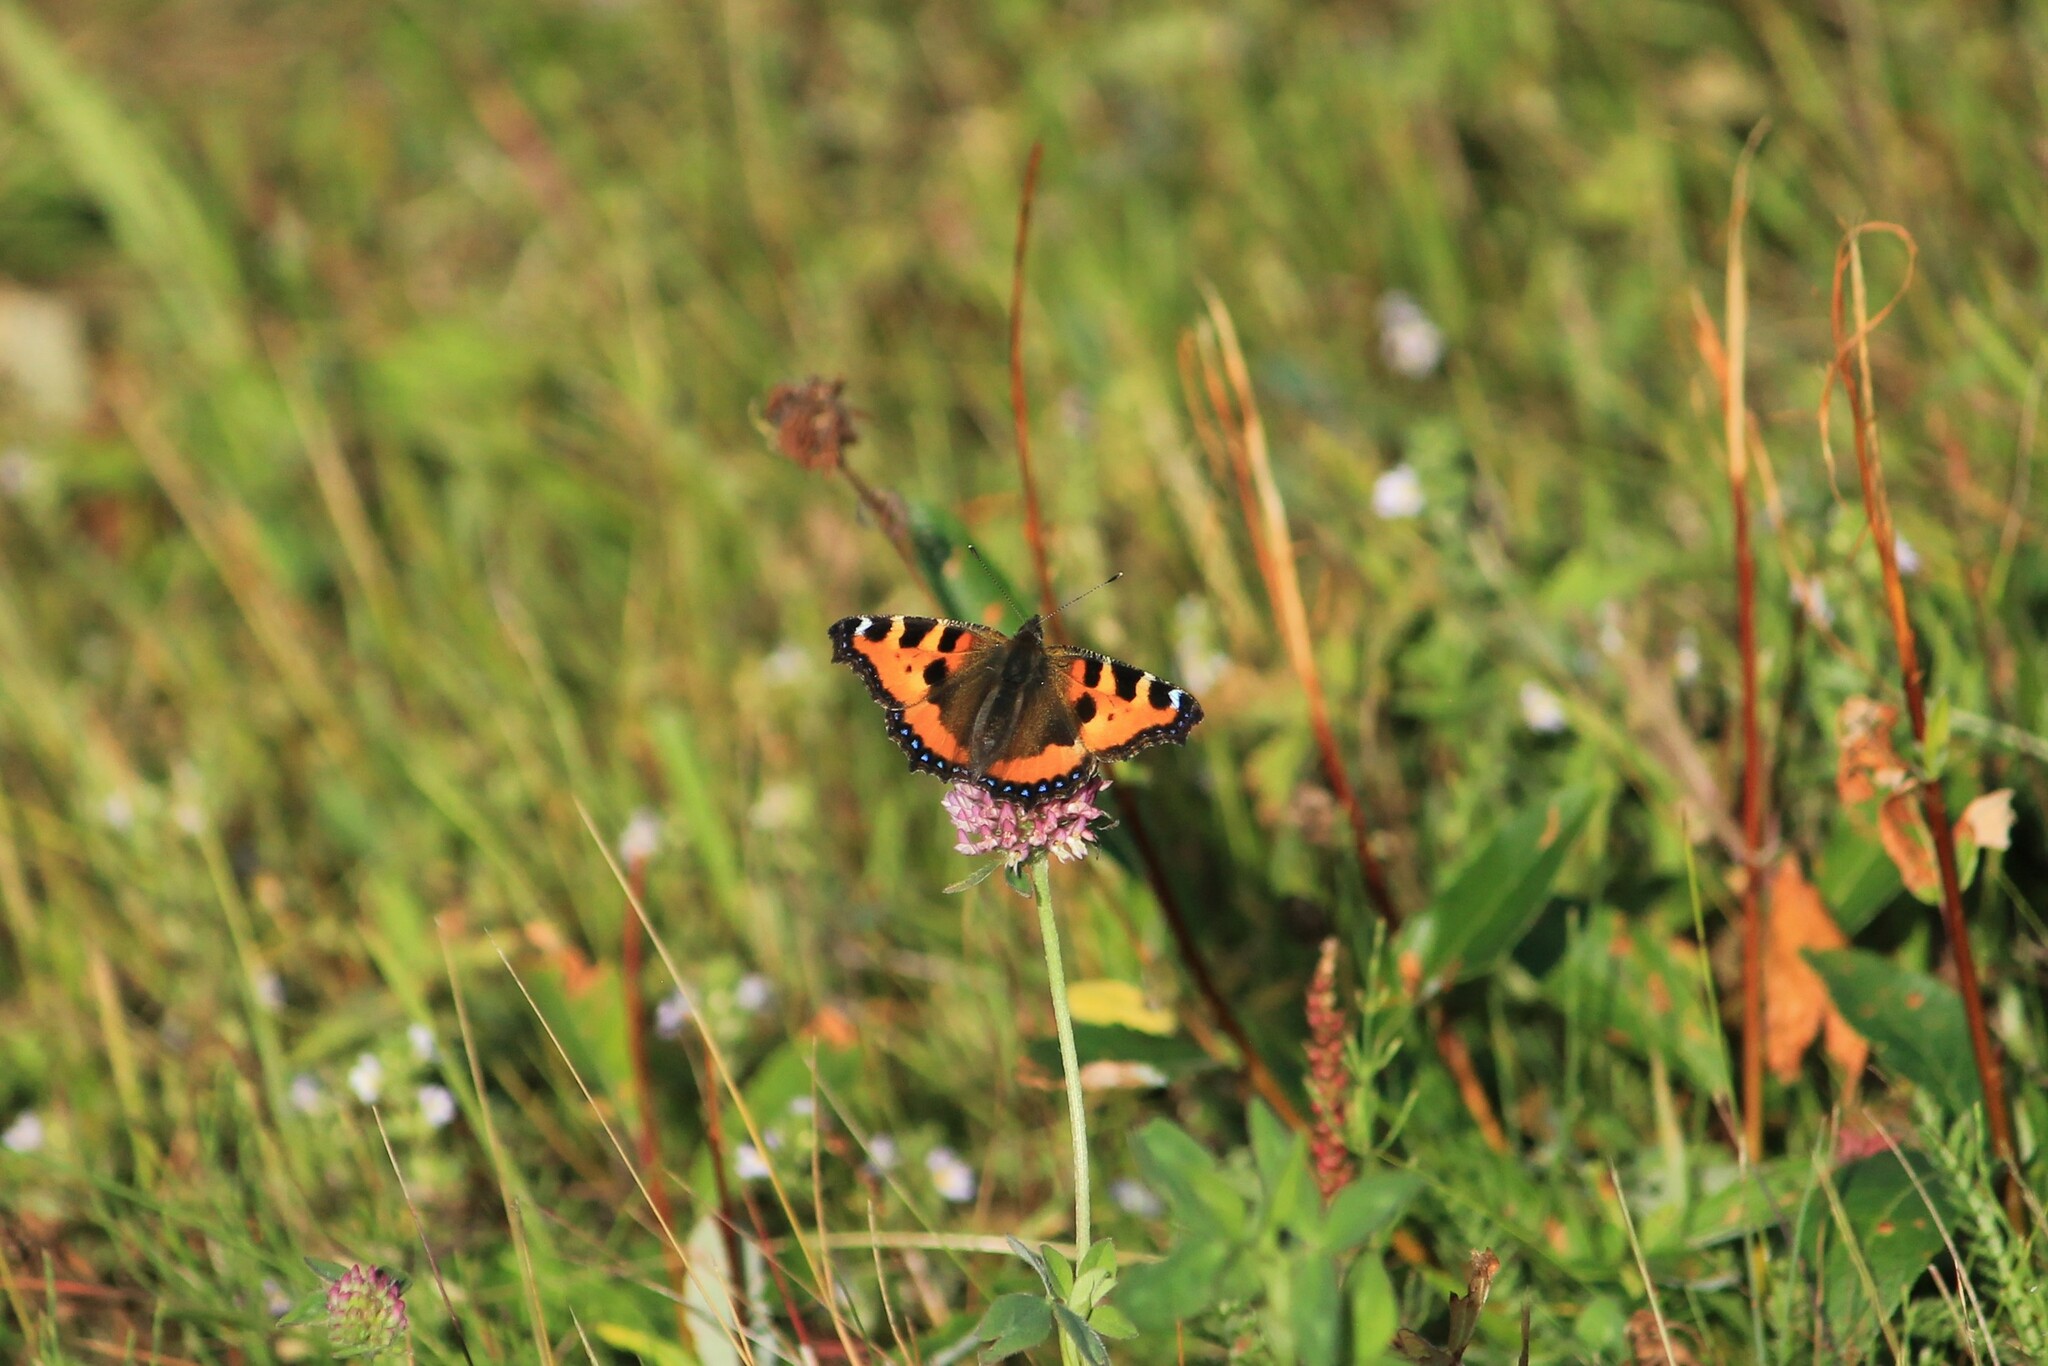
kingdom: Animalia
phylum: Arthropoda
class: Insecta
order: Lepidoptera
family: Nymphalidae
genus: Aglais
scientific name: Aglais urticae
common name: Small tortoiseshell
